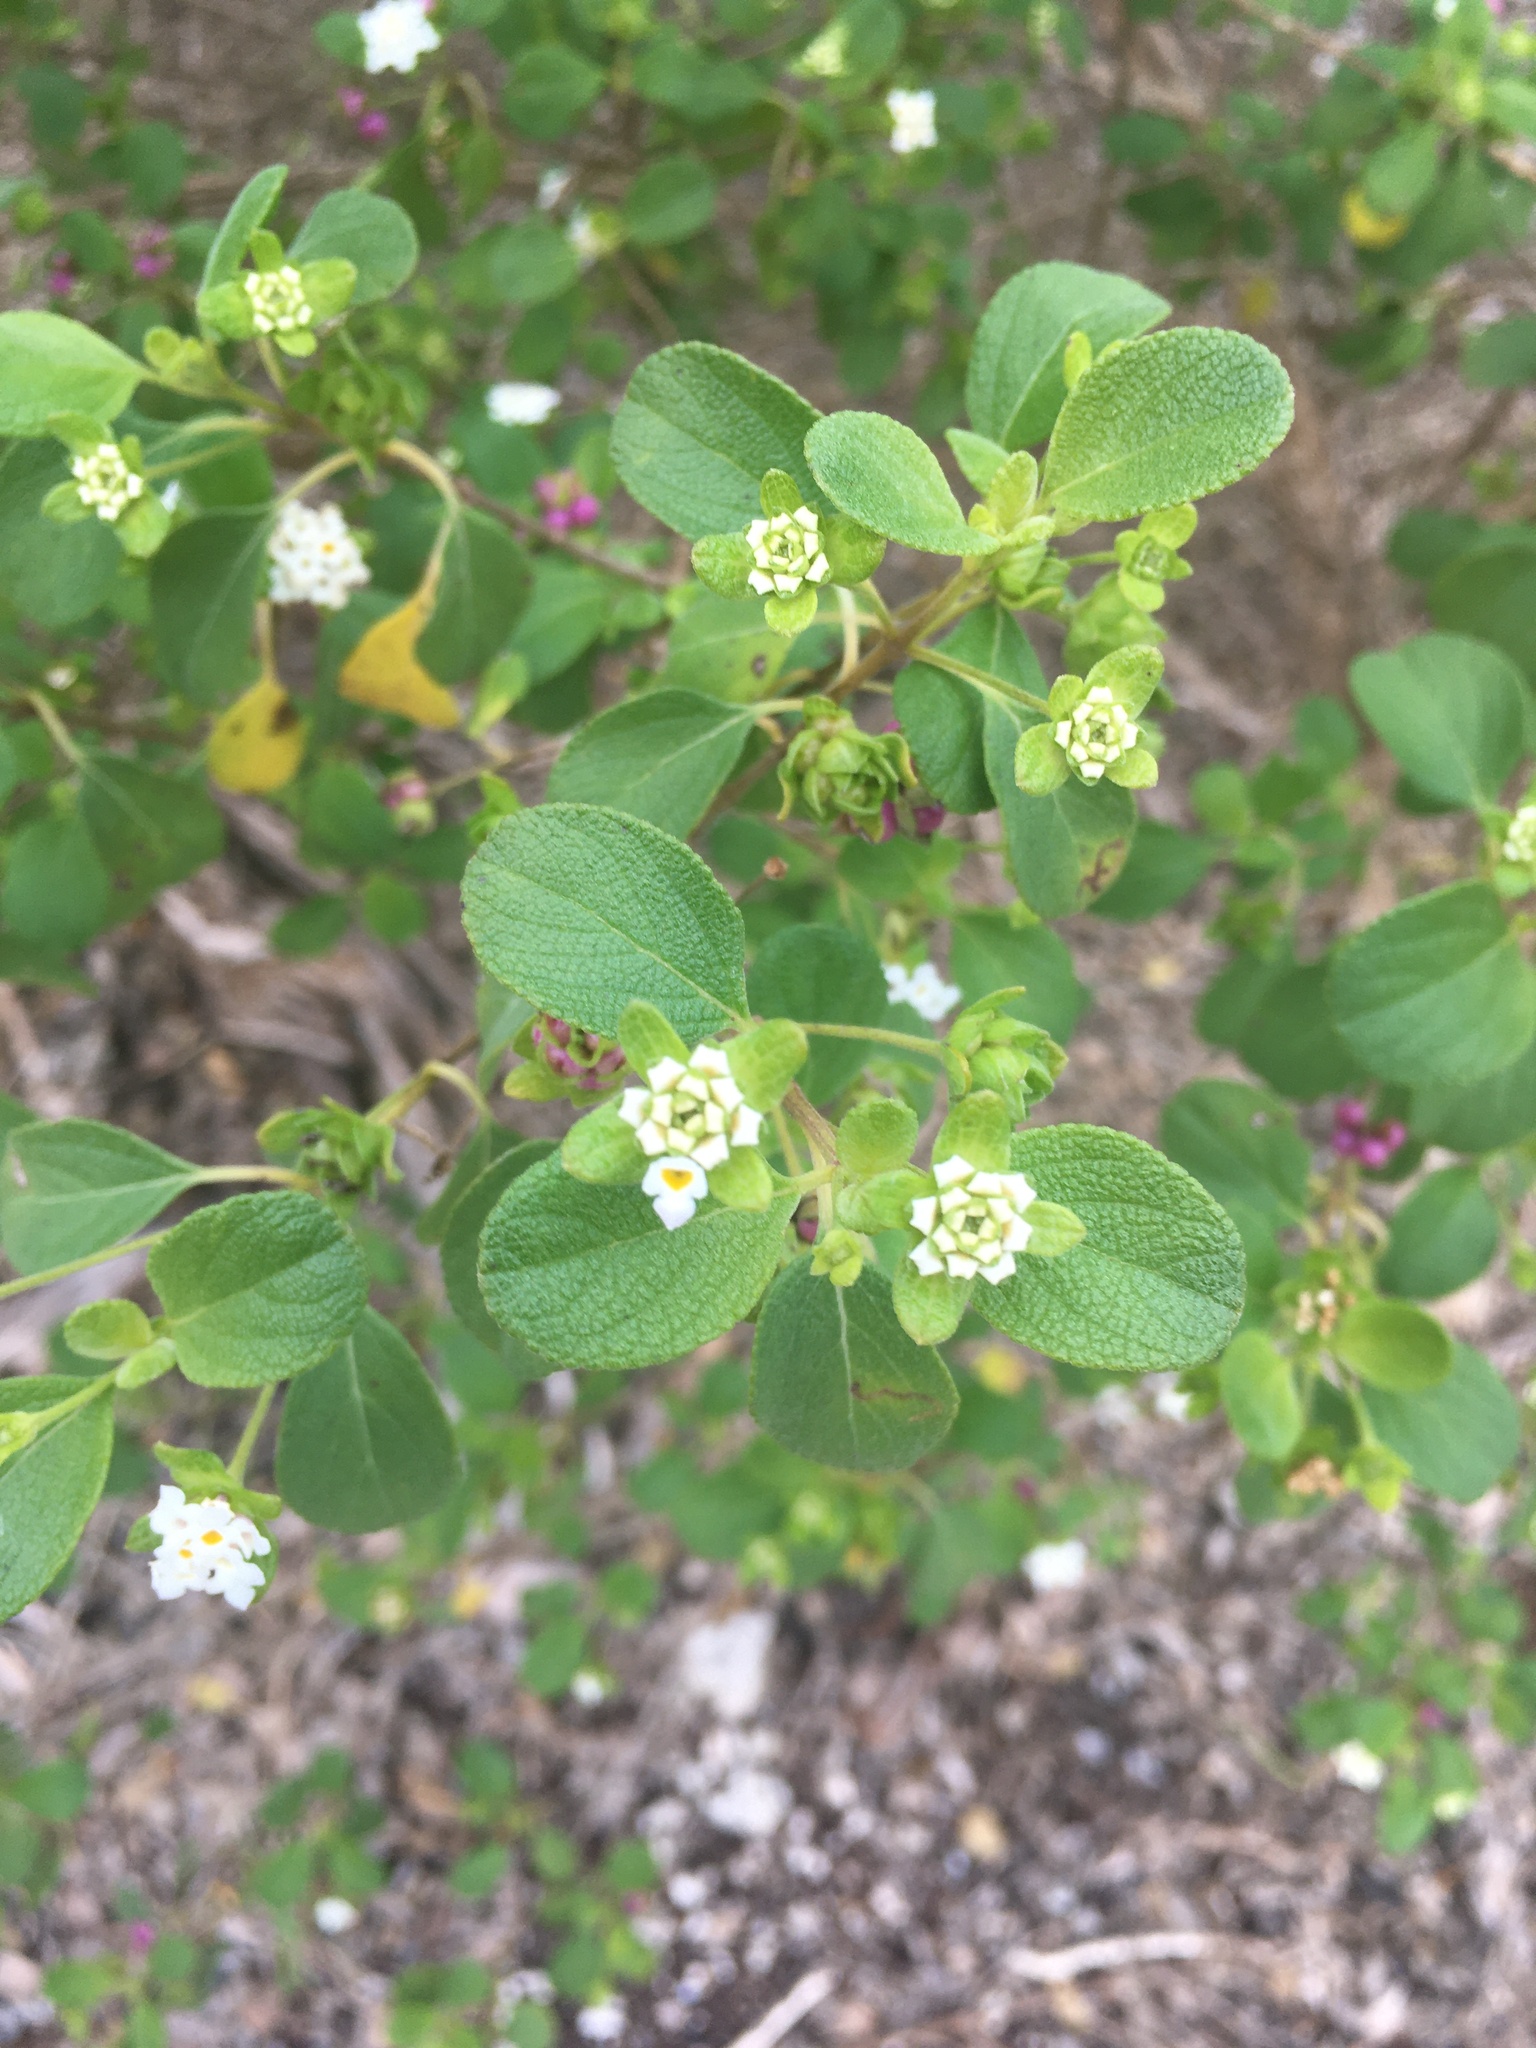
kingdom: Plantae
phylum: Tracheophyta
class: Magnoliopsida
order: Lamiales
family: Verbenaceae
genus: Lantana
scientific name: Lantana involucrata
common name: Black sage
